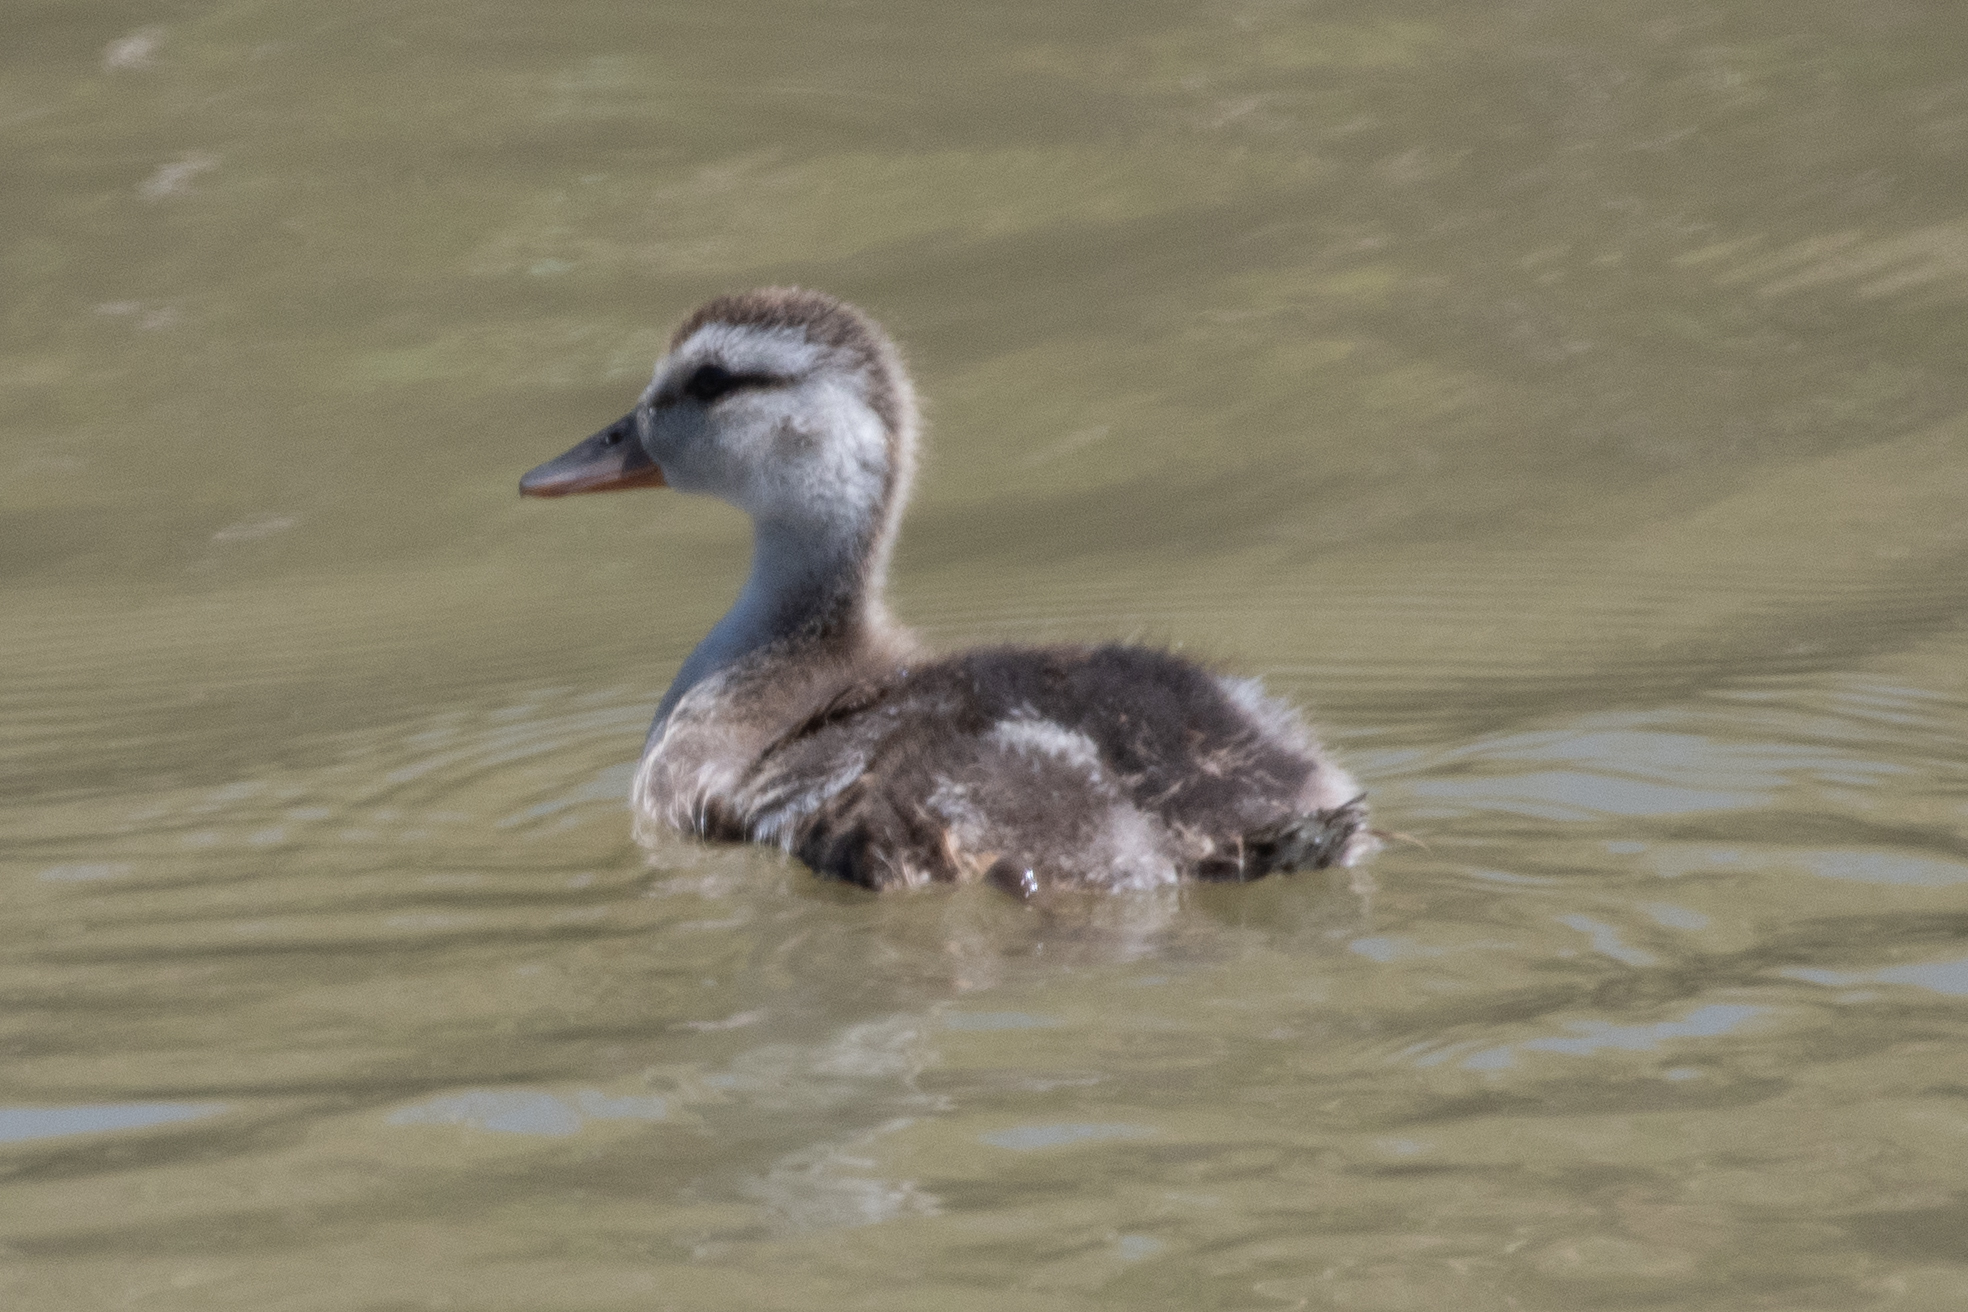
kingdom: Animalia
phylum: Chordata
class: Aves
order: Anseriformes
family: Anatidae
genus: Mareca
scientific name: Mareca strepera
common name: Gadwall
